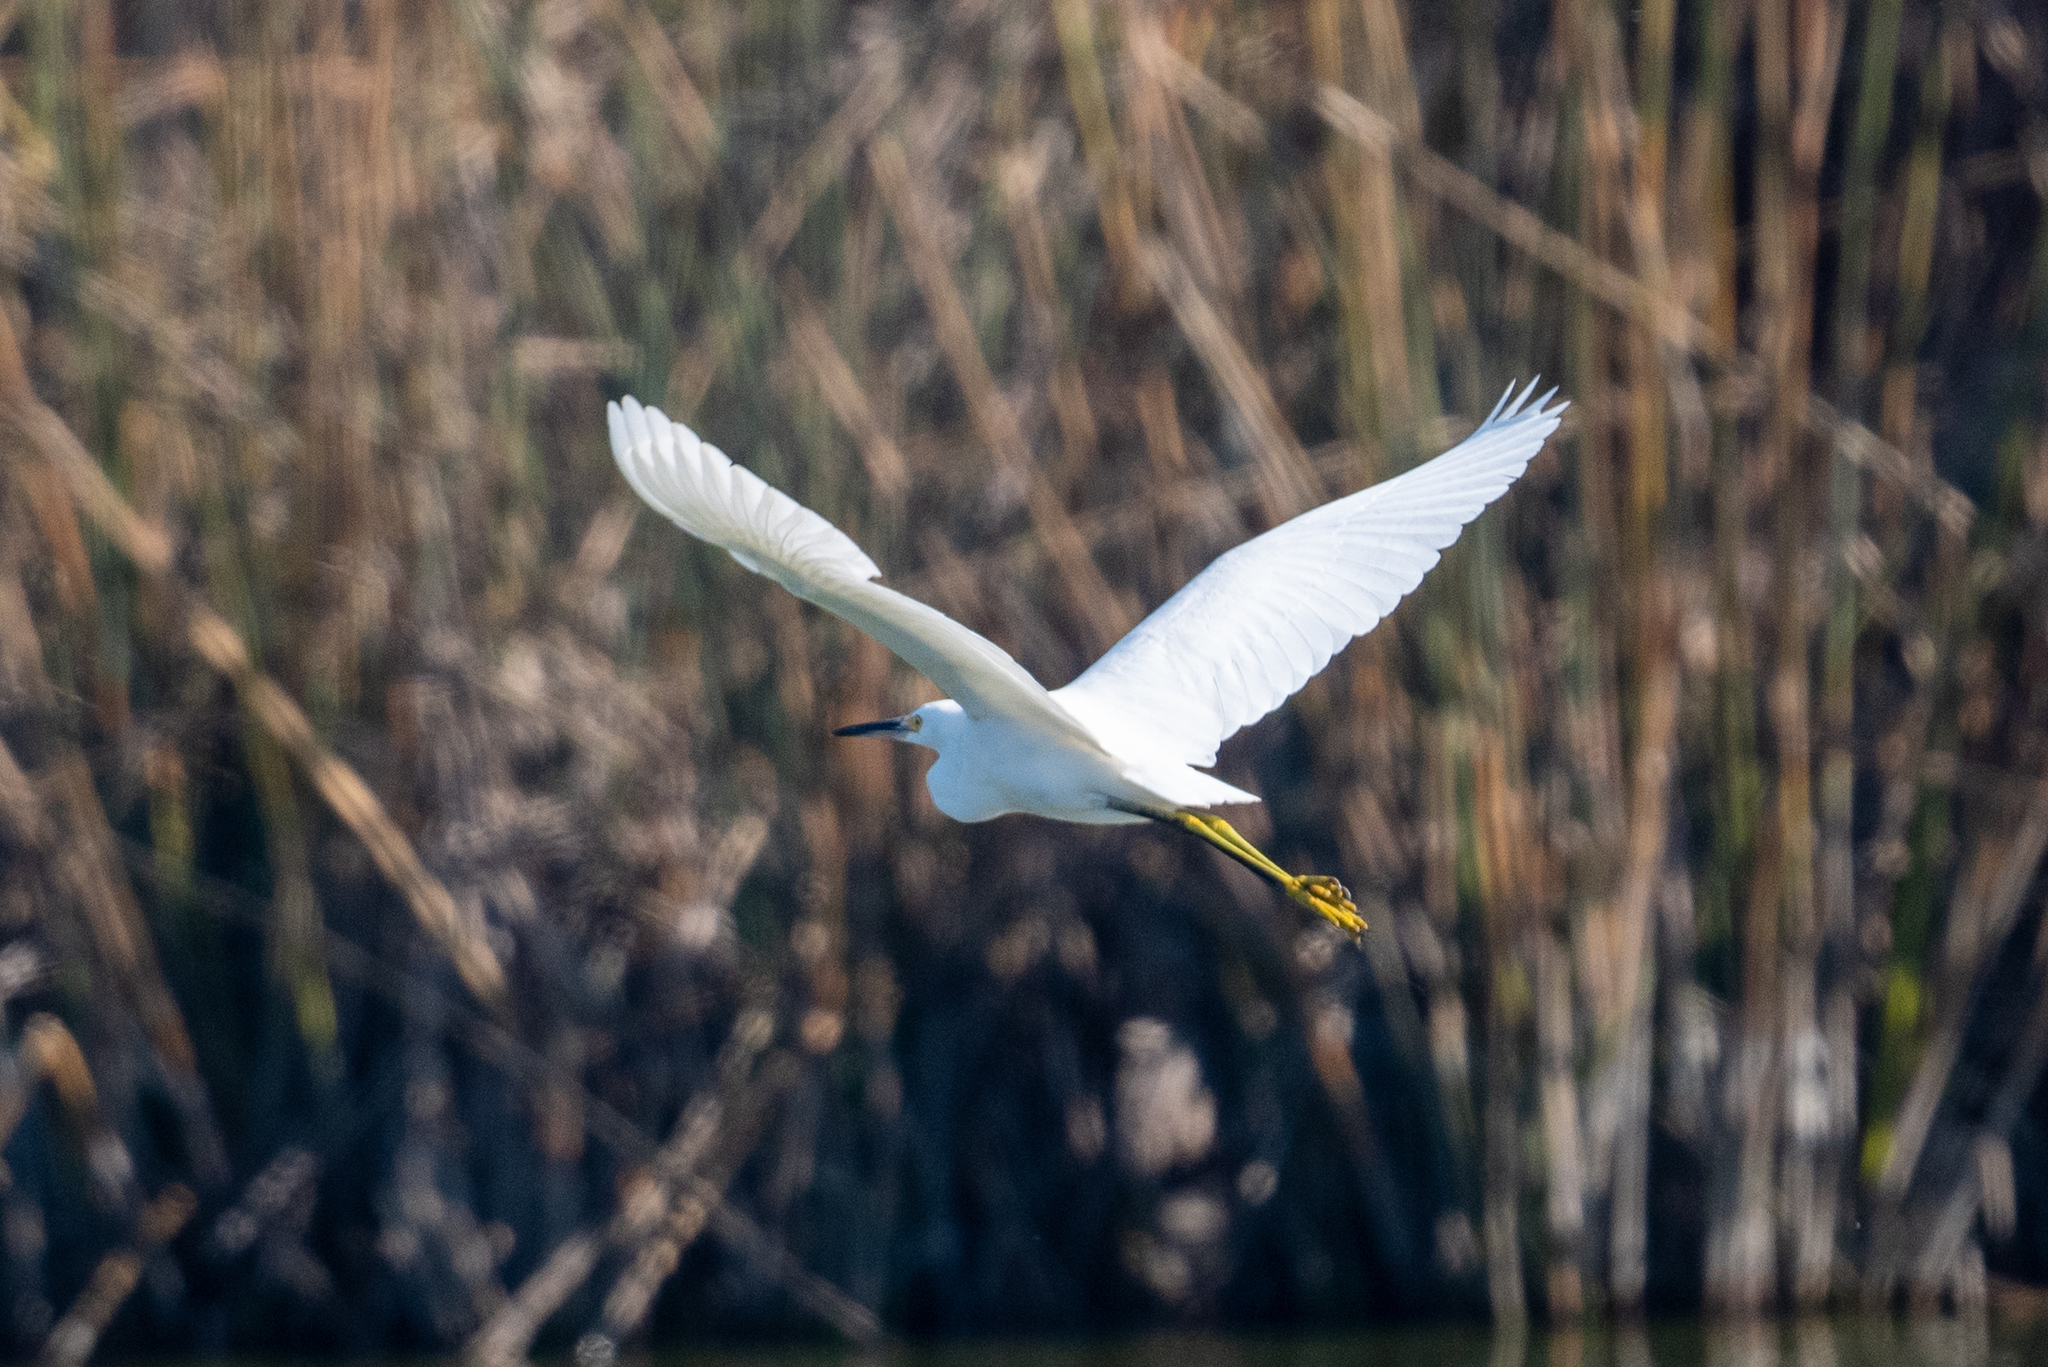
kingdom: Animalia
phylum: Chordata
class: Aves
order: Pelecaniformes
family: Ardeidae
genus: Egretta
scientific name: Egretta thula
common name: Snowy egret
